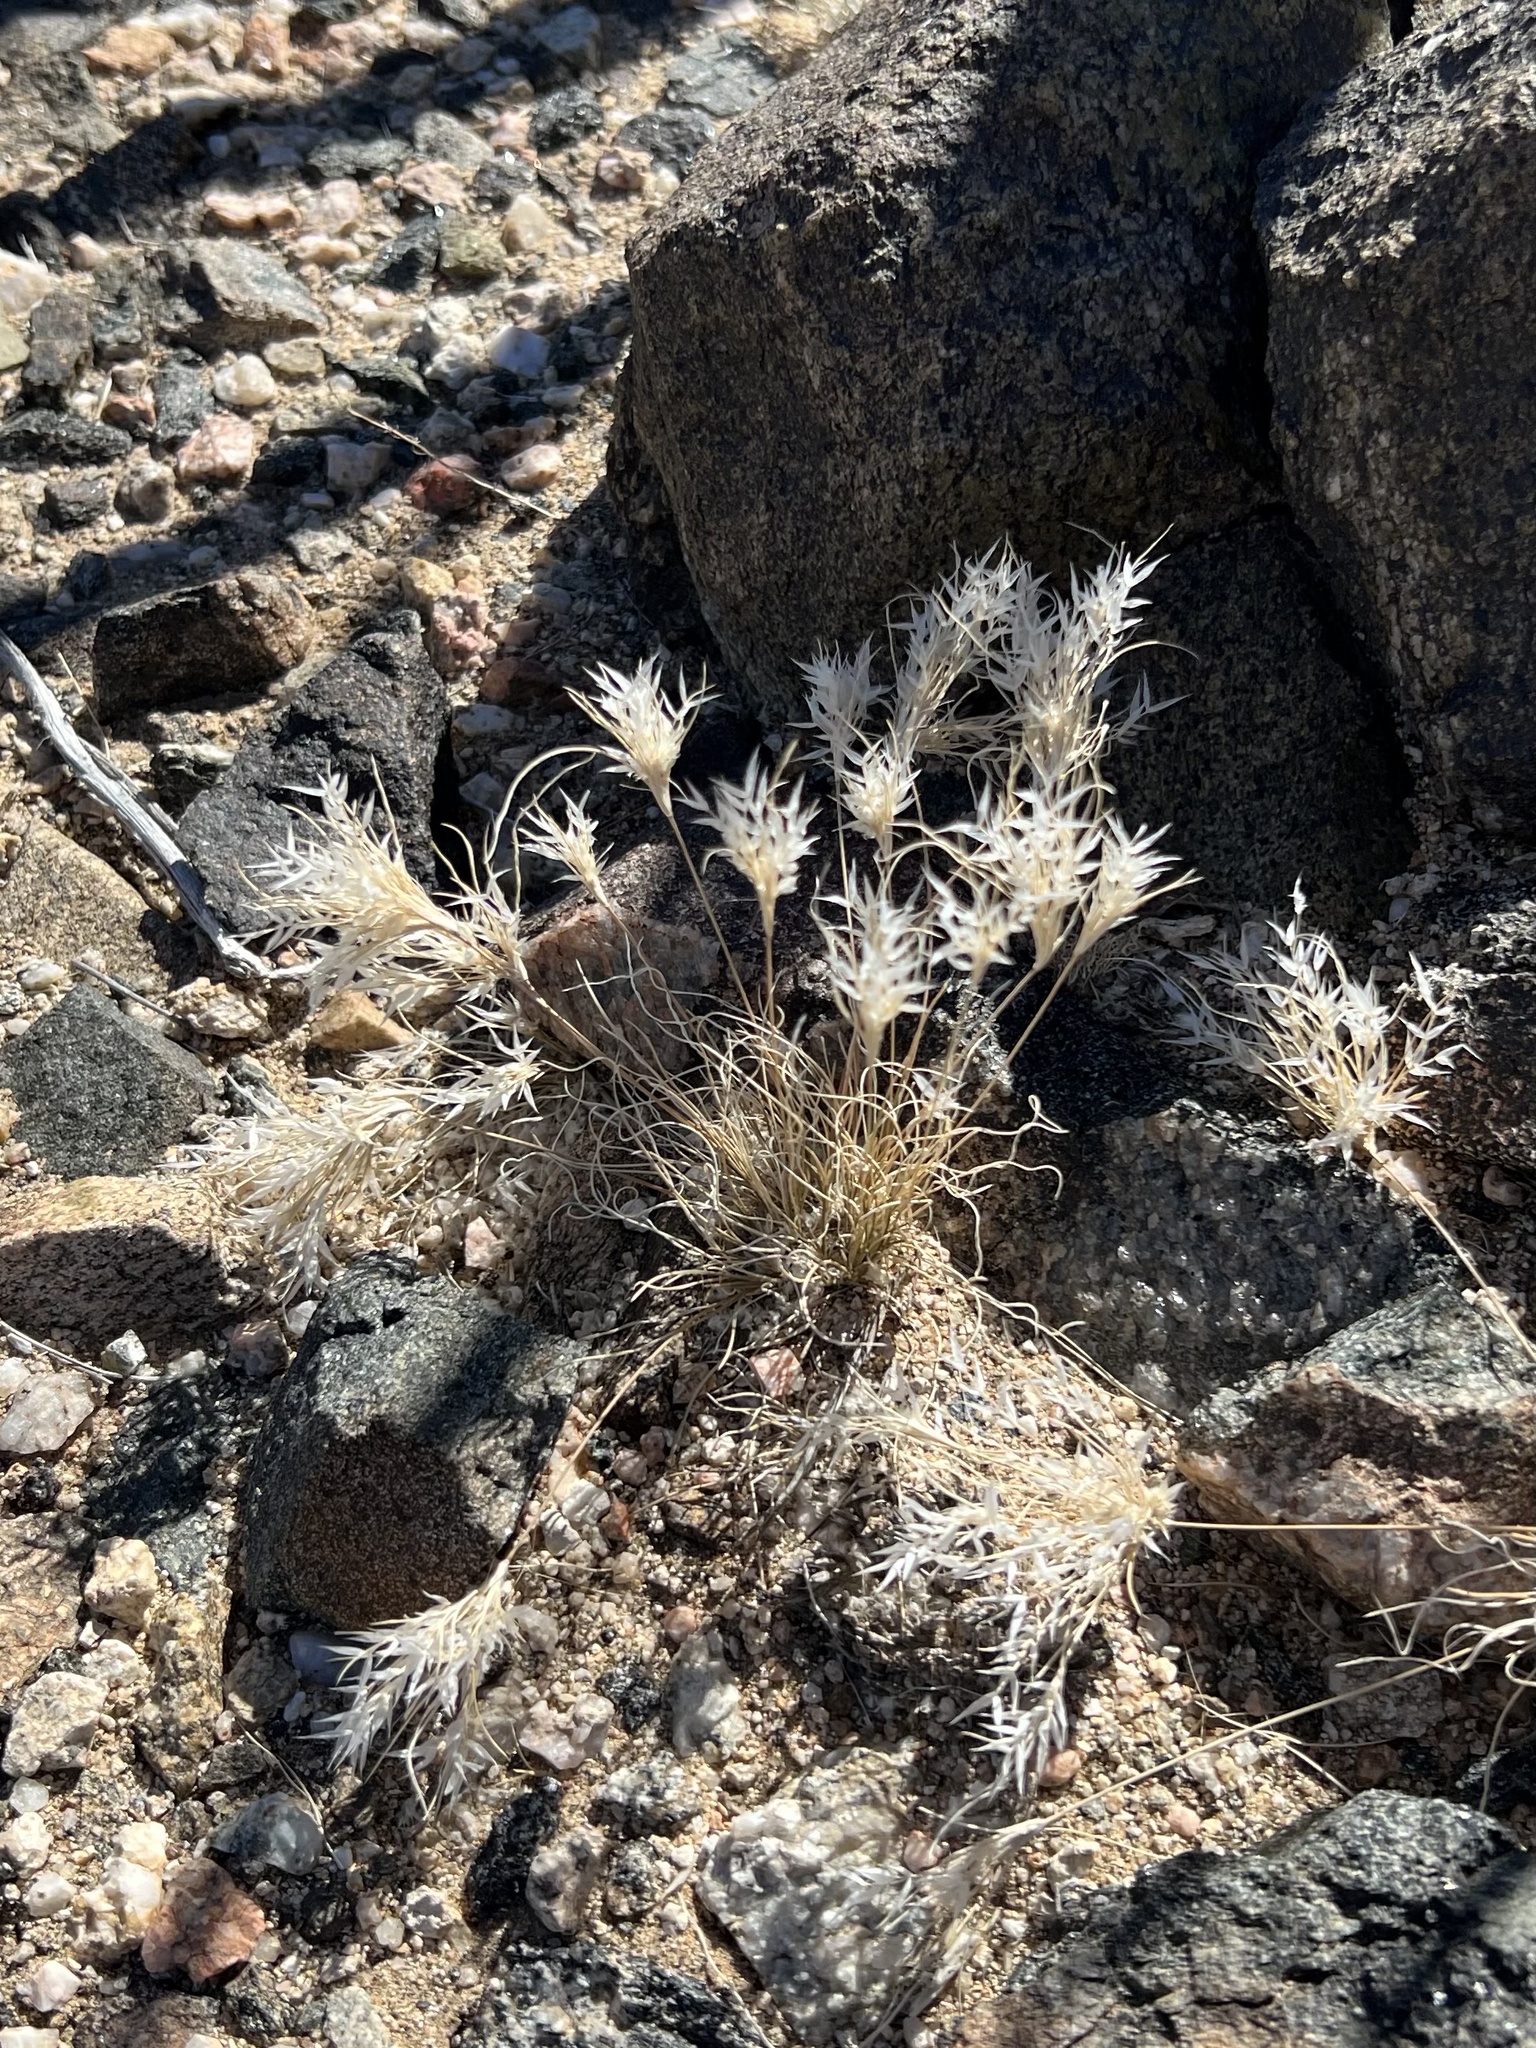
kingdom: Plantae
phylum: Tracheophyta
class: Liliopsida
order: Poales
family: Poaceae
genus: Dasyochloa
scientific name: Dasyochloa pulchella
